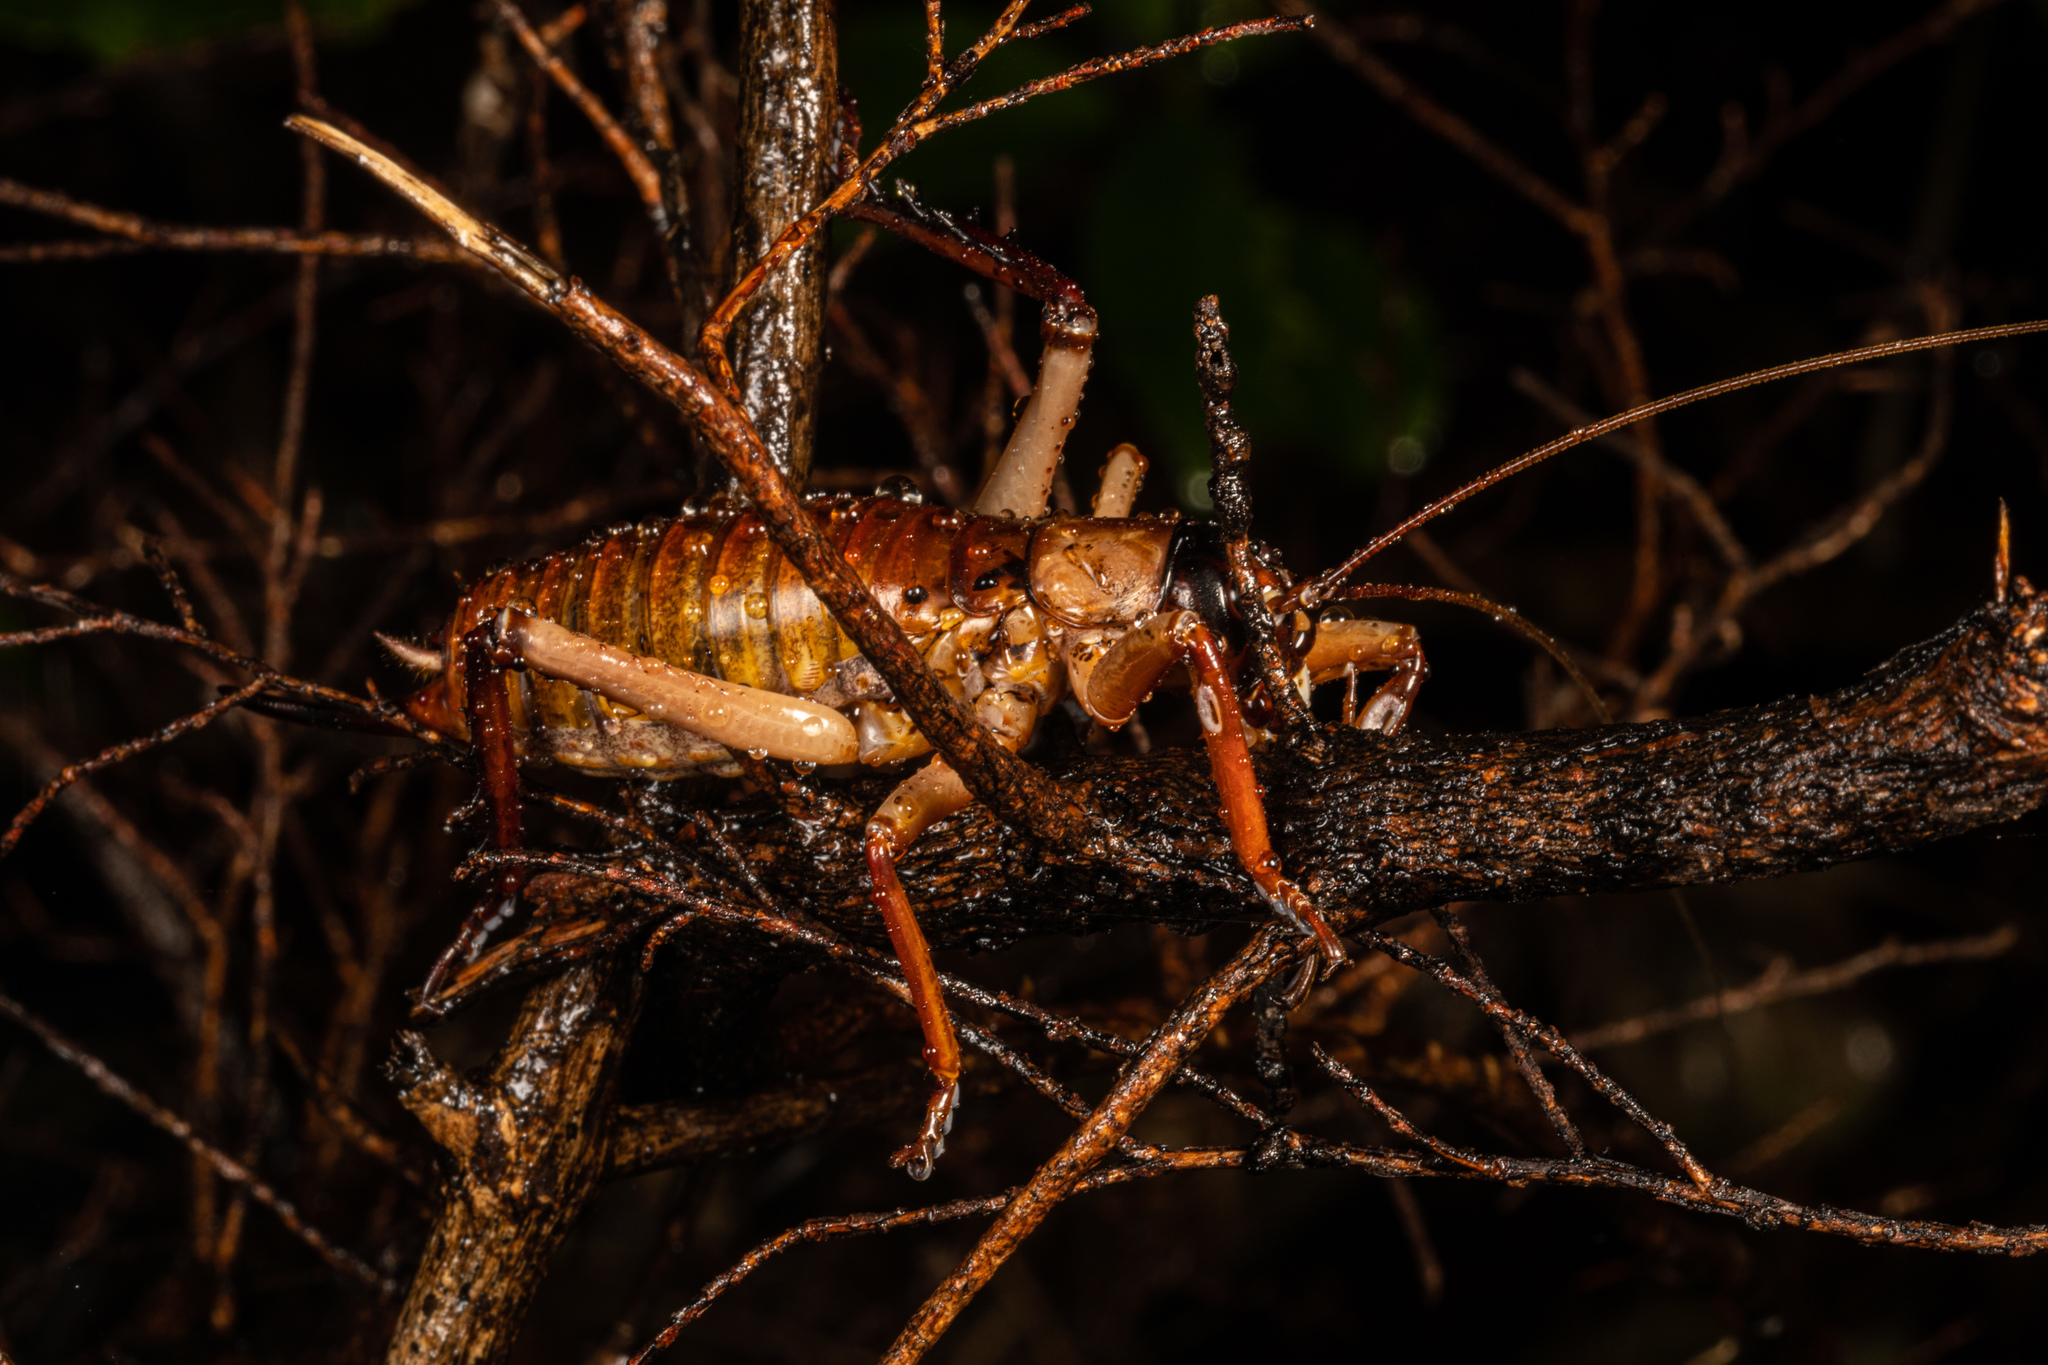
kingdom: Animalia
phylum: Arthropoda
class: Insecta
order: Orthoptera
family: Anostostomatidae
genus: Hemideina
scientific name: Hemideina thoracica
